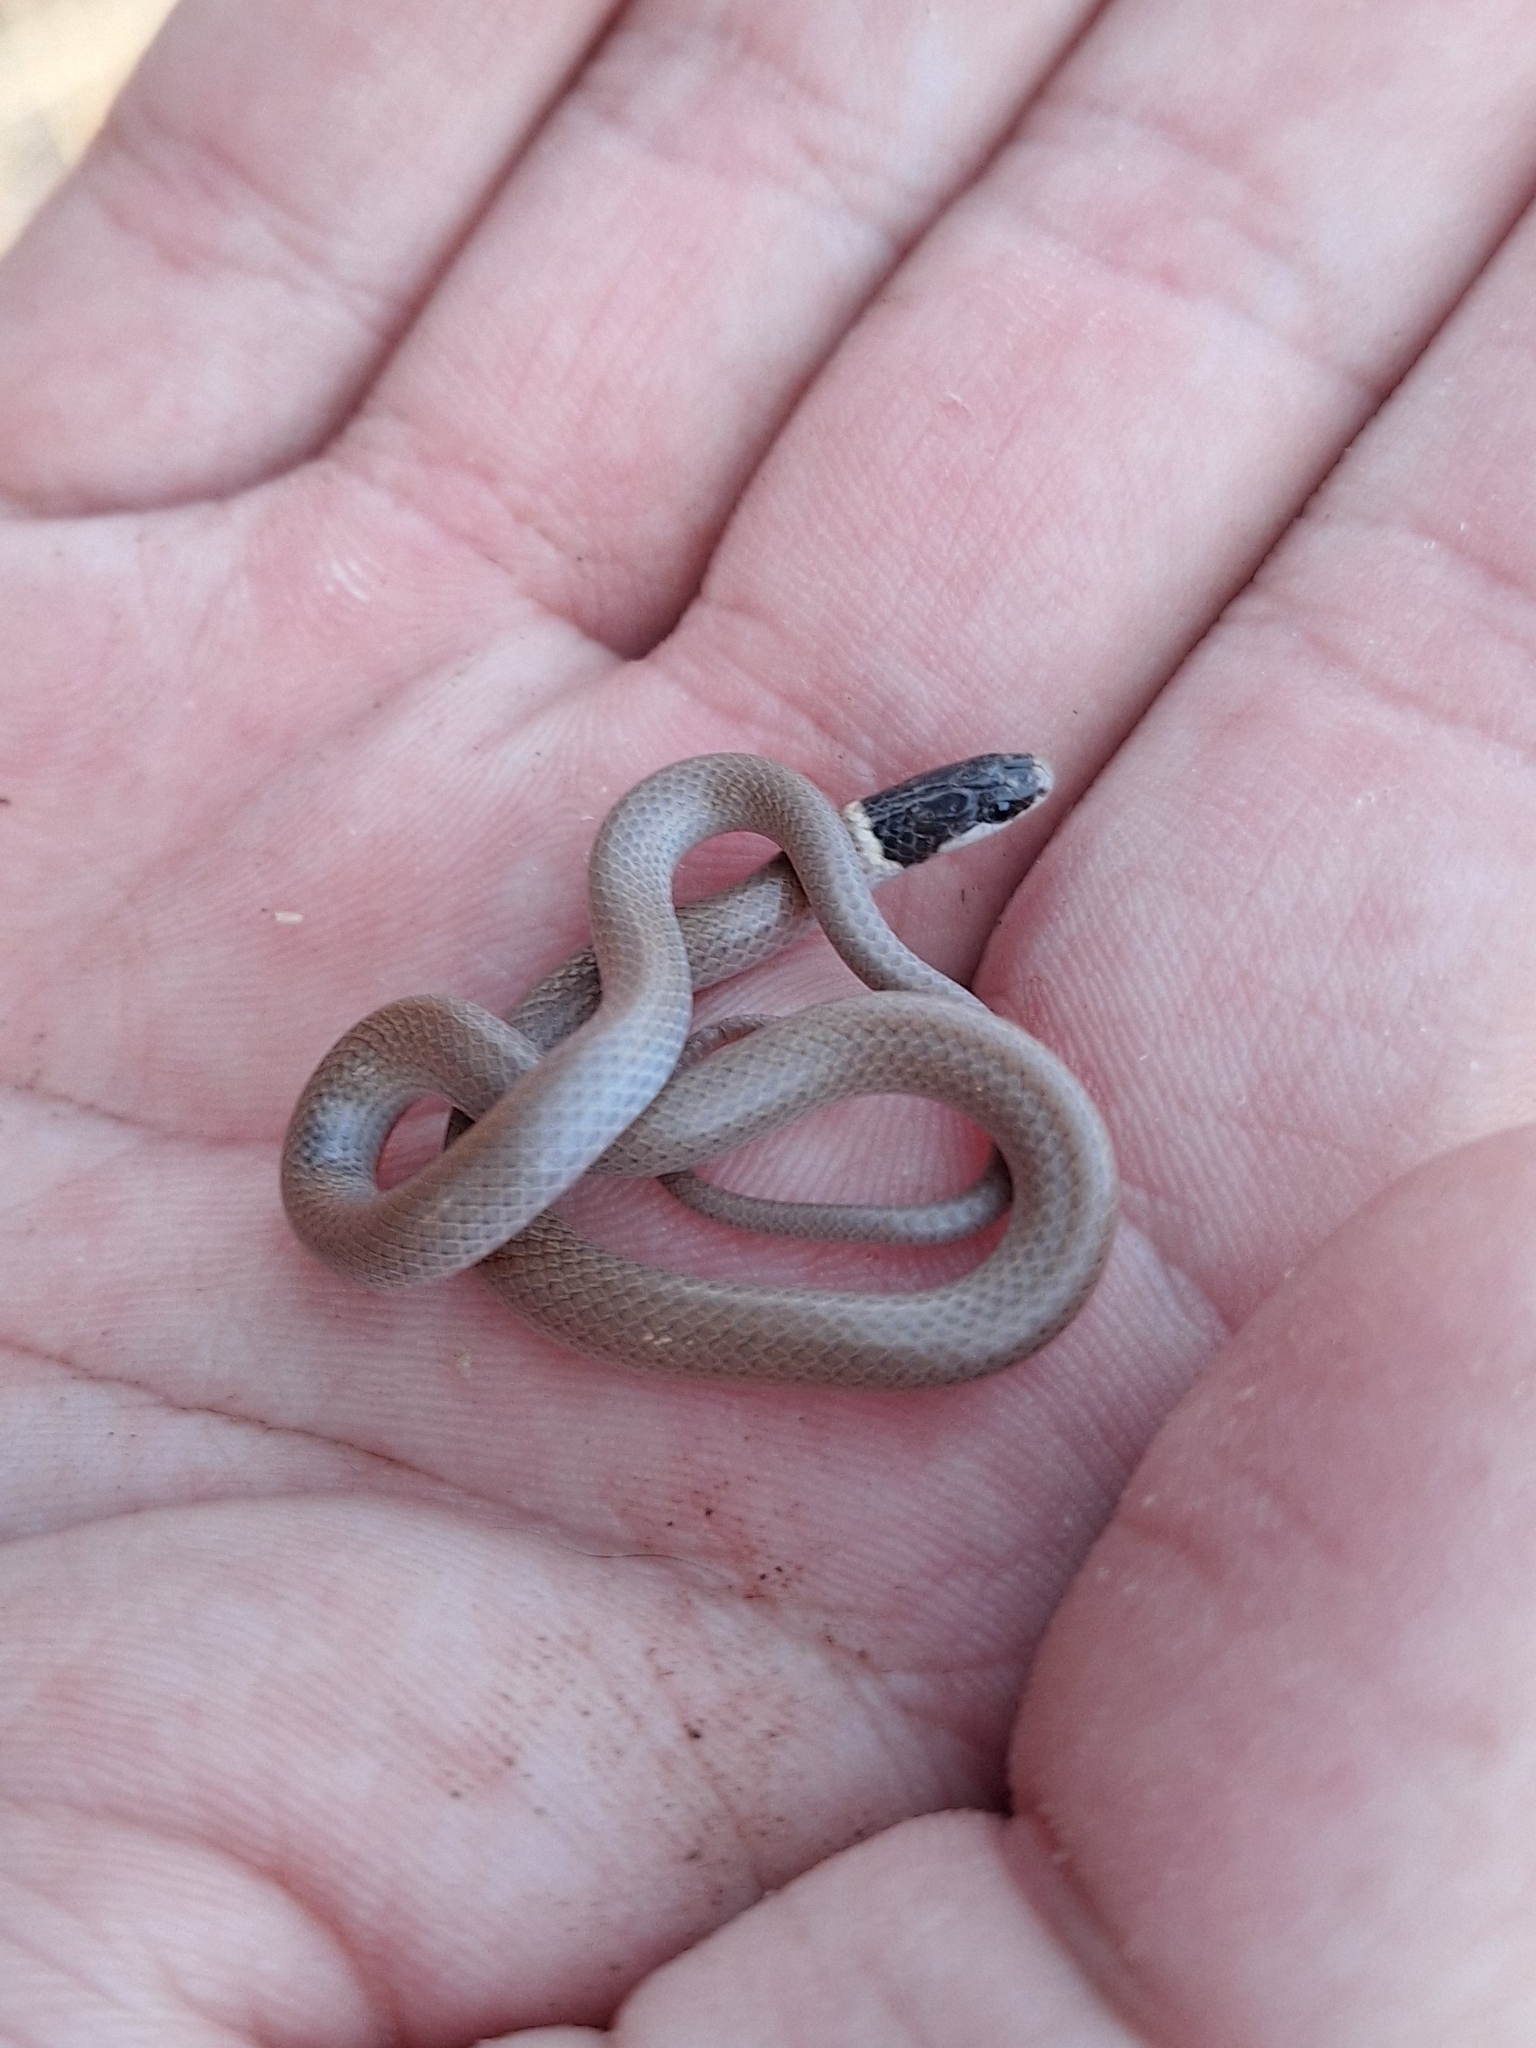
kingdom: Animalia
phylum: Chordata
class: Squamata
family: Colubridae
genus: Tantilla
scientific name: Tantilla yaquia
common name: Yaqui black-headed snake
